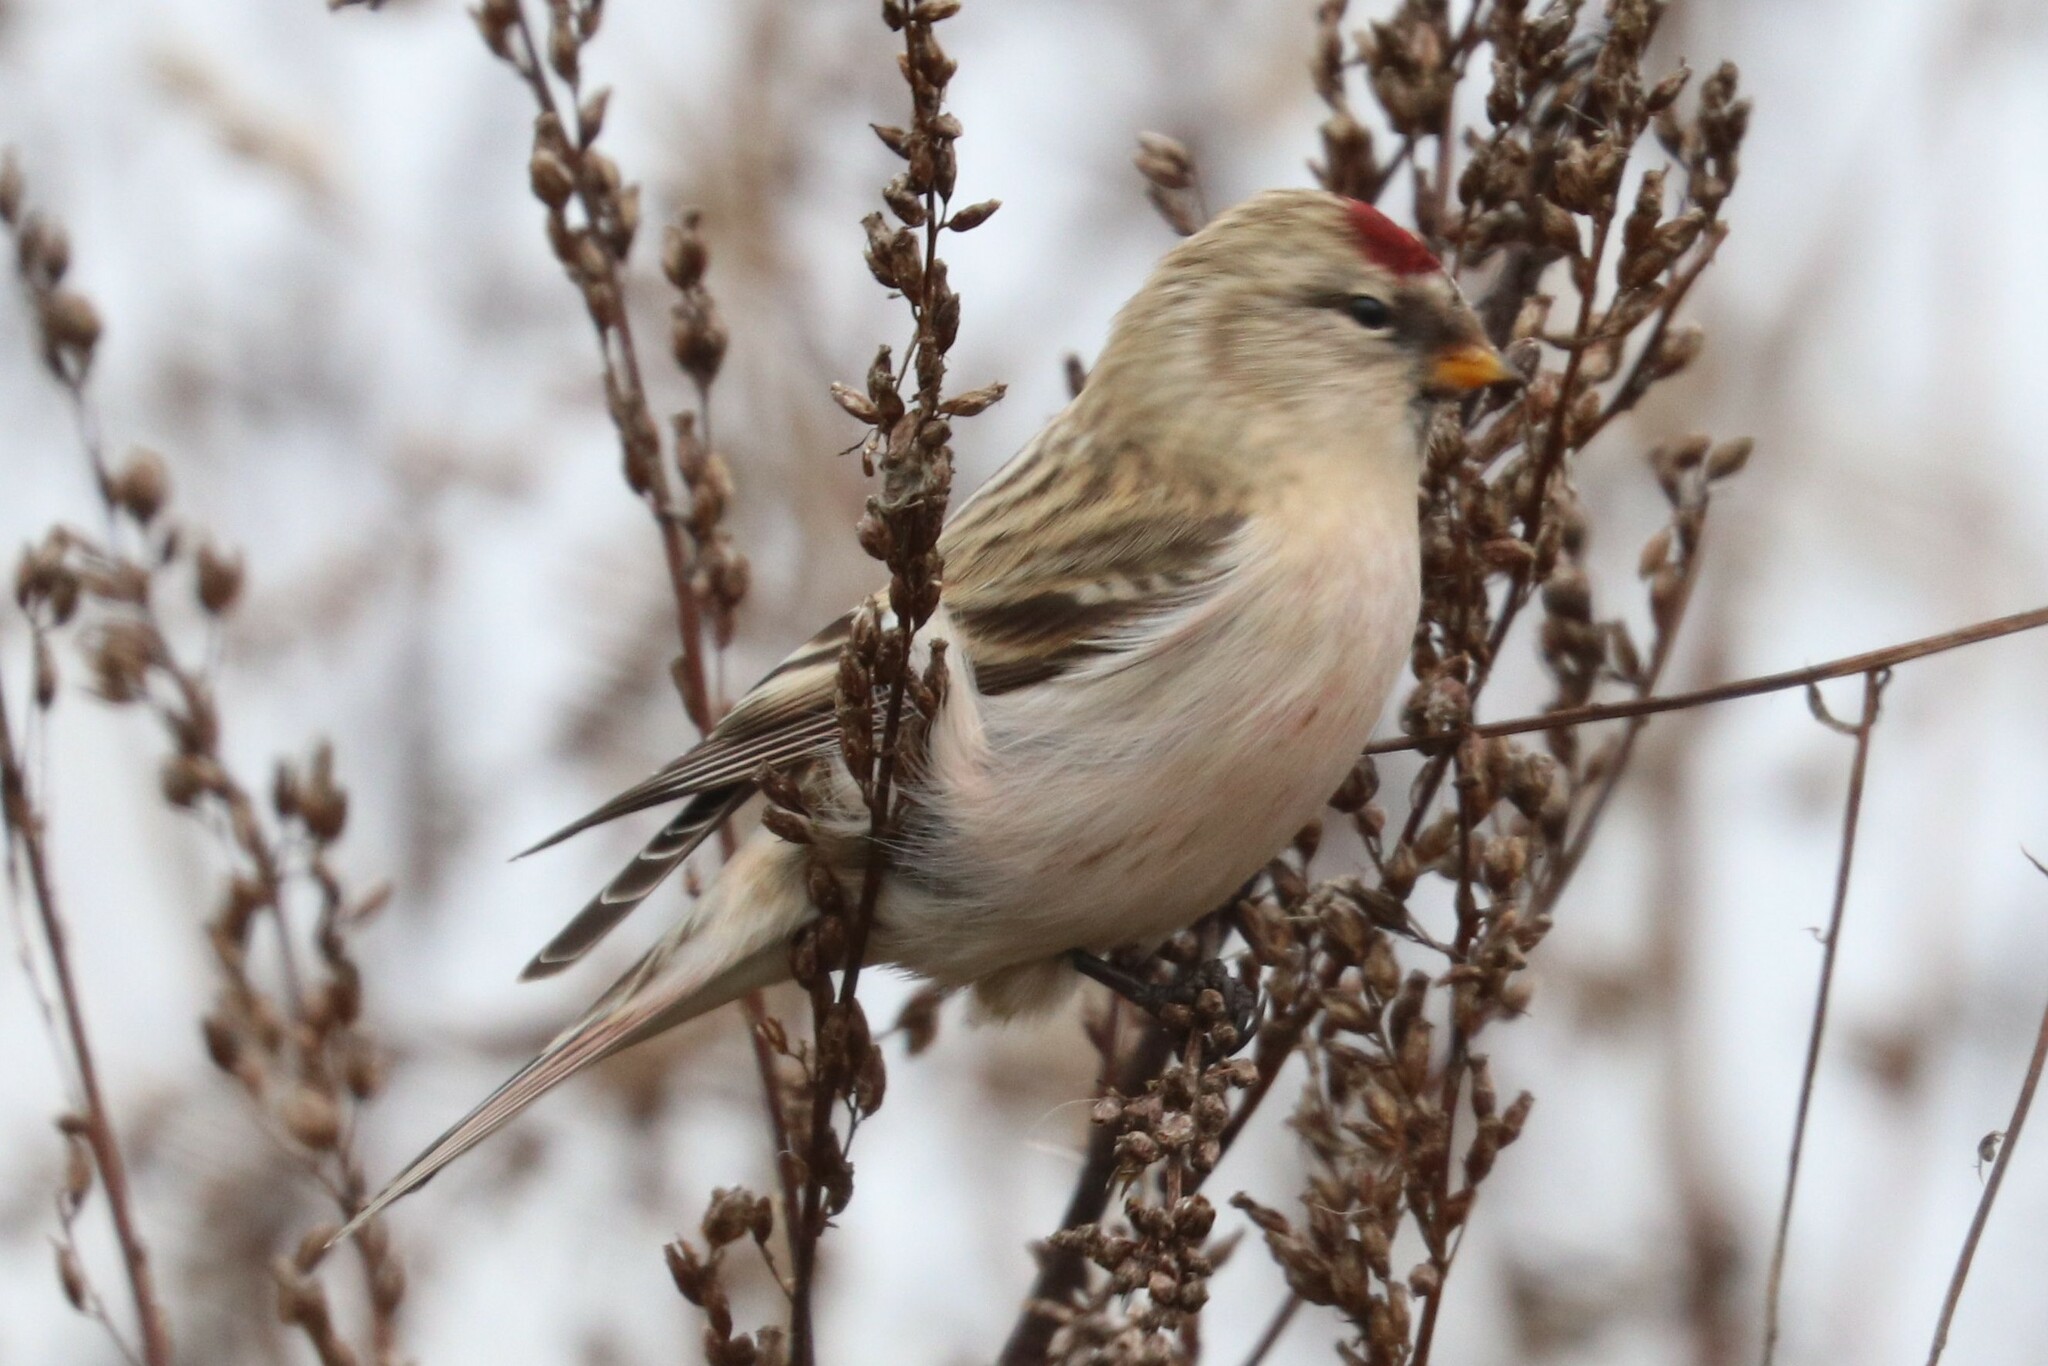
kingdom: Animalia
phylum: Chordata
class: Aves
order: Passeriformes
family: Fringillidae
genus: Acanthis
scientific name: Acanthis hornemanni
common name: Arctic redpoll
